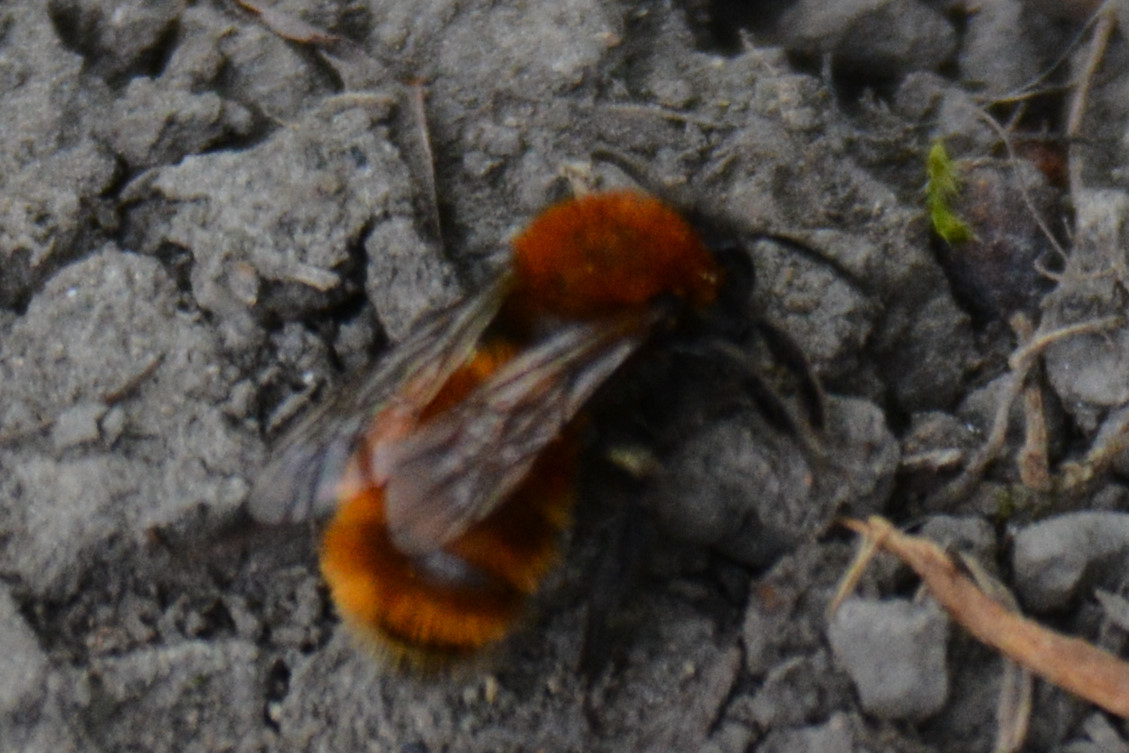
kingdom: Animalia
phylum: Arthropoda
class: Insecta
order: Hymenoptera
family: Andrenidae
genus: Andrena
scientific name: Andrena fulva
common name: Tawny mining bee
